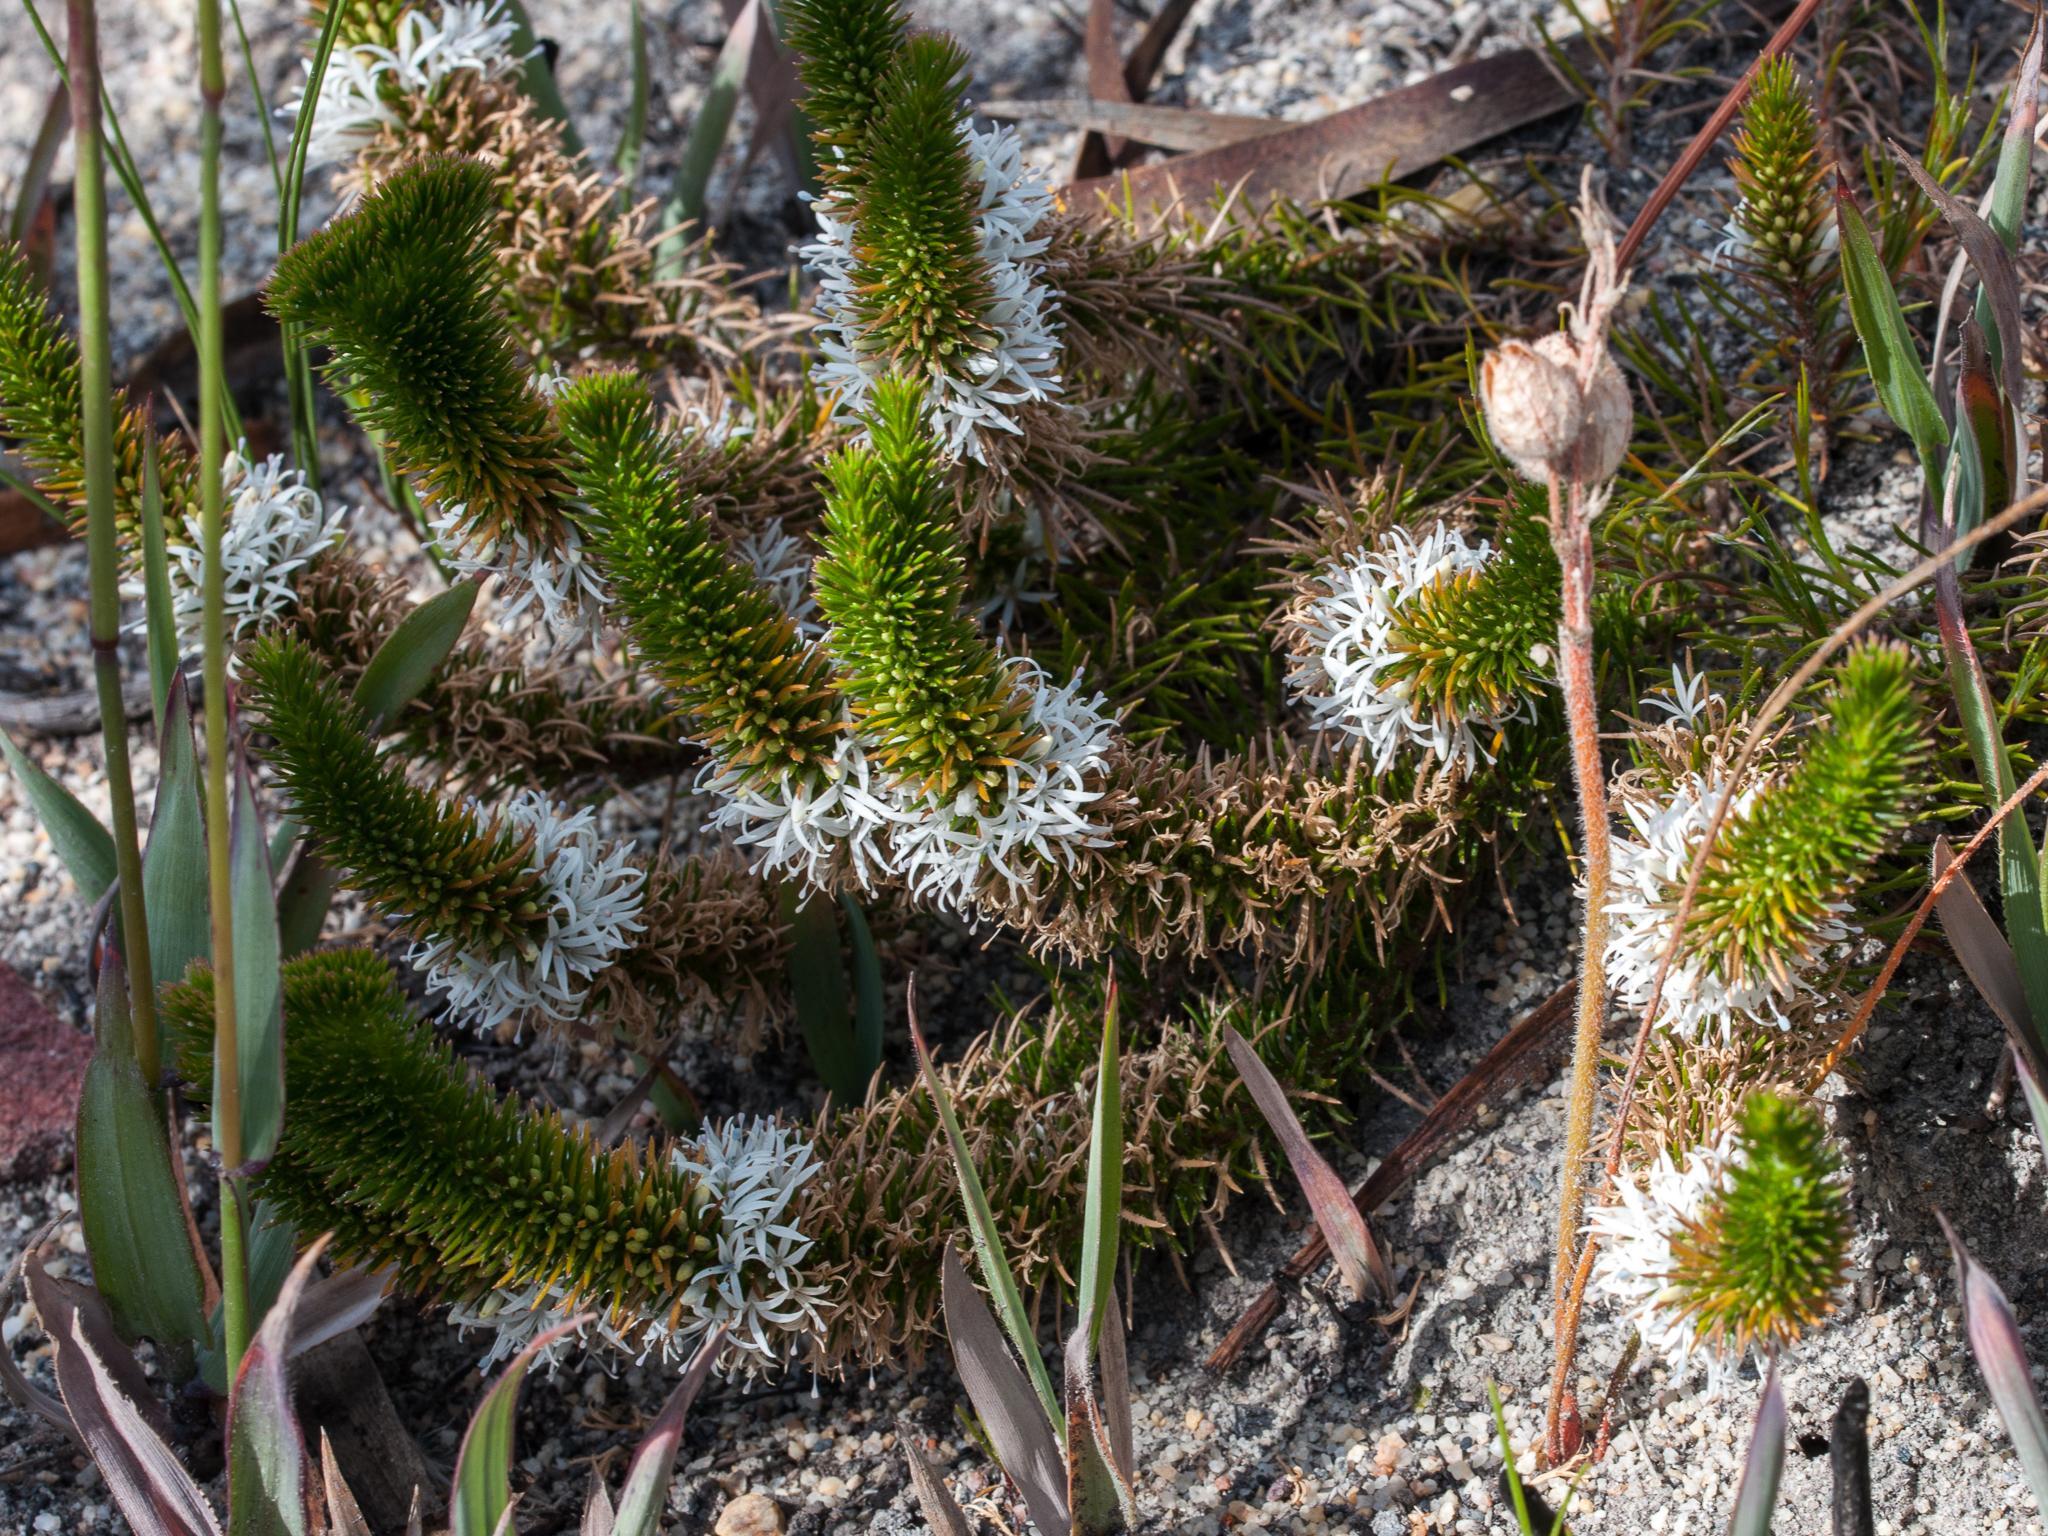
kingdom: Plantae
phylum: Tracheophyta
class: Magnoliopsida
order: Asterales
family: Campanulaceae
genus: Merciera
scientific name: Merciera leptoloba
